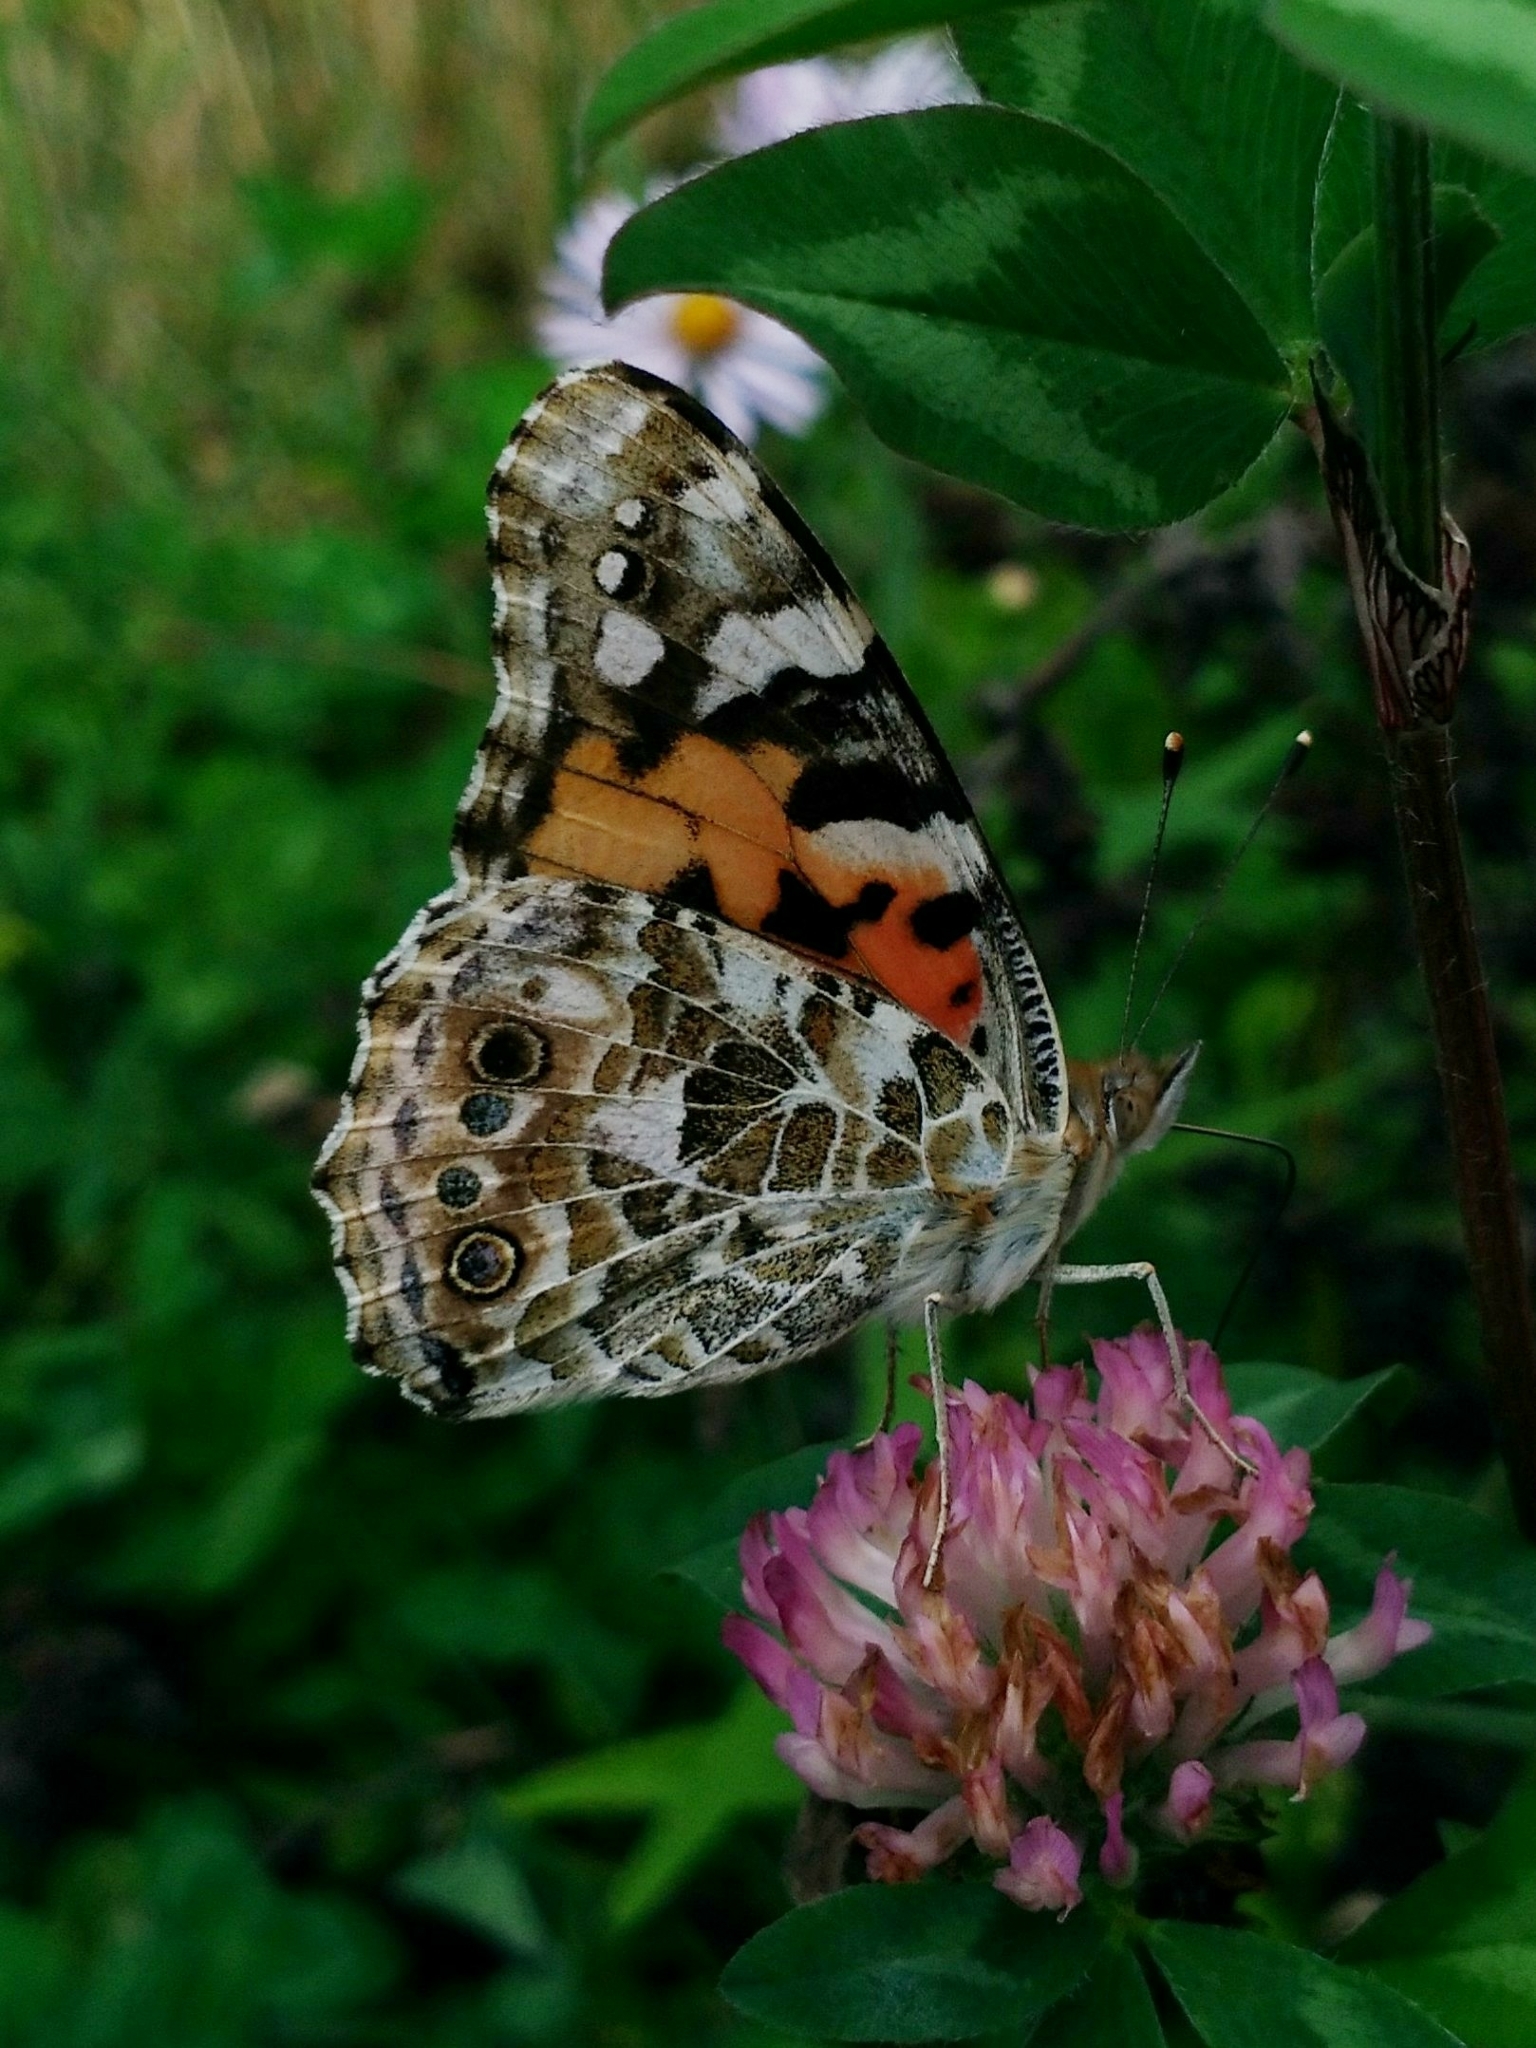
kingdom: Animalia
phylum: Arthropoda
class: Insecta
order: Lepidoptera
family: Nymphalidae
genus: Vanessa
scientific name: Vanessa cardui
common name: Painted lady
